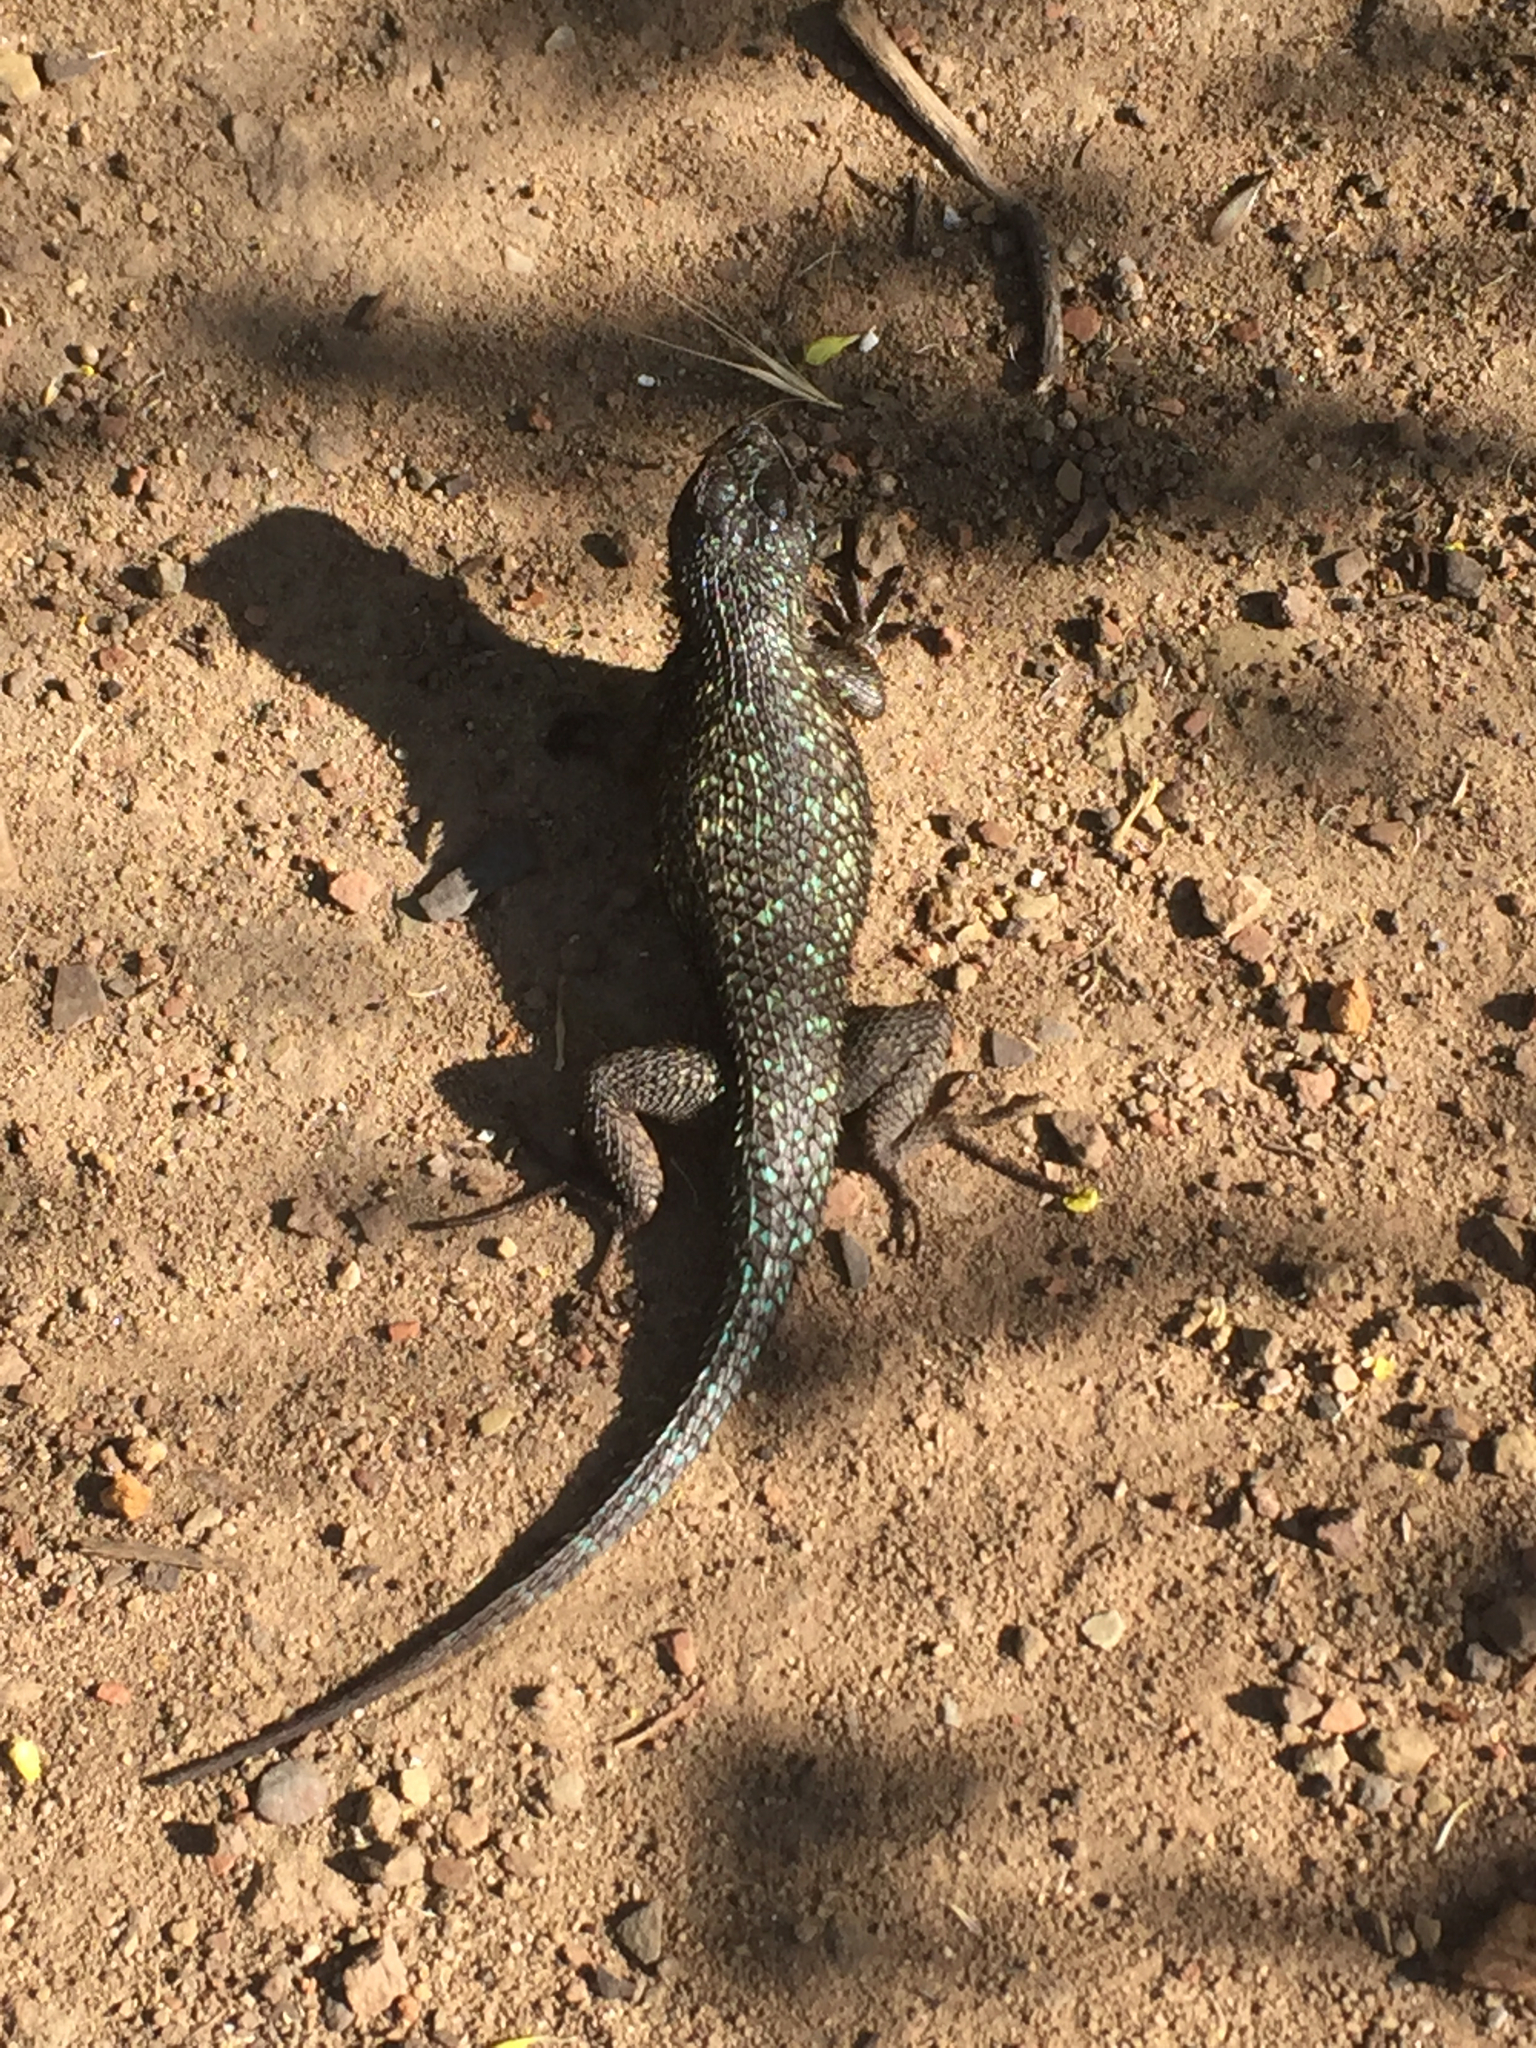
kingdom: Animalia
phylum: Chordata
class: Squamata
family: Phrynosomatidae
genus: Sceloporus
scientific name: Sceloporus occidentalis
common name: Western fence lizard
